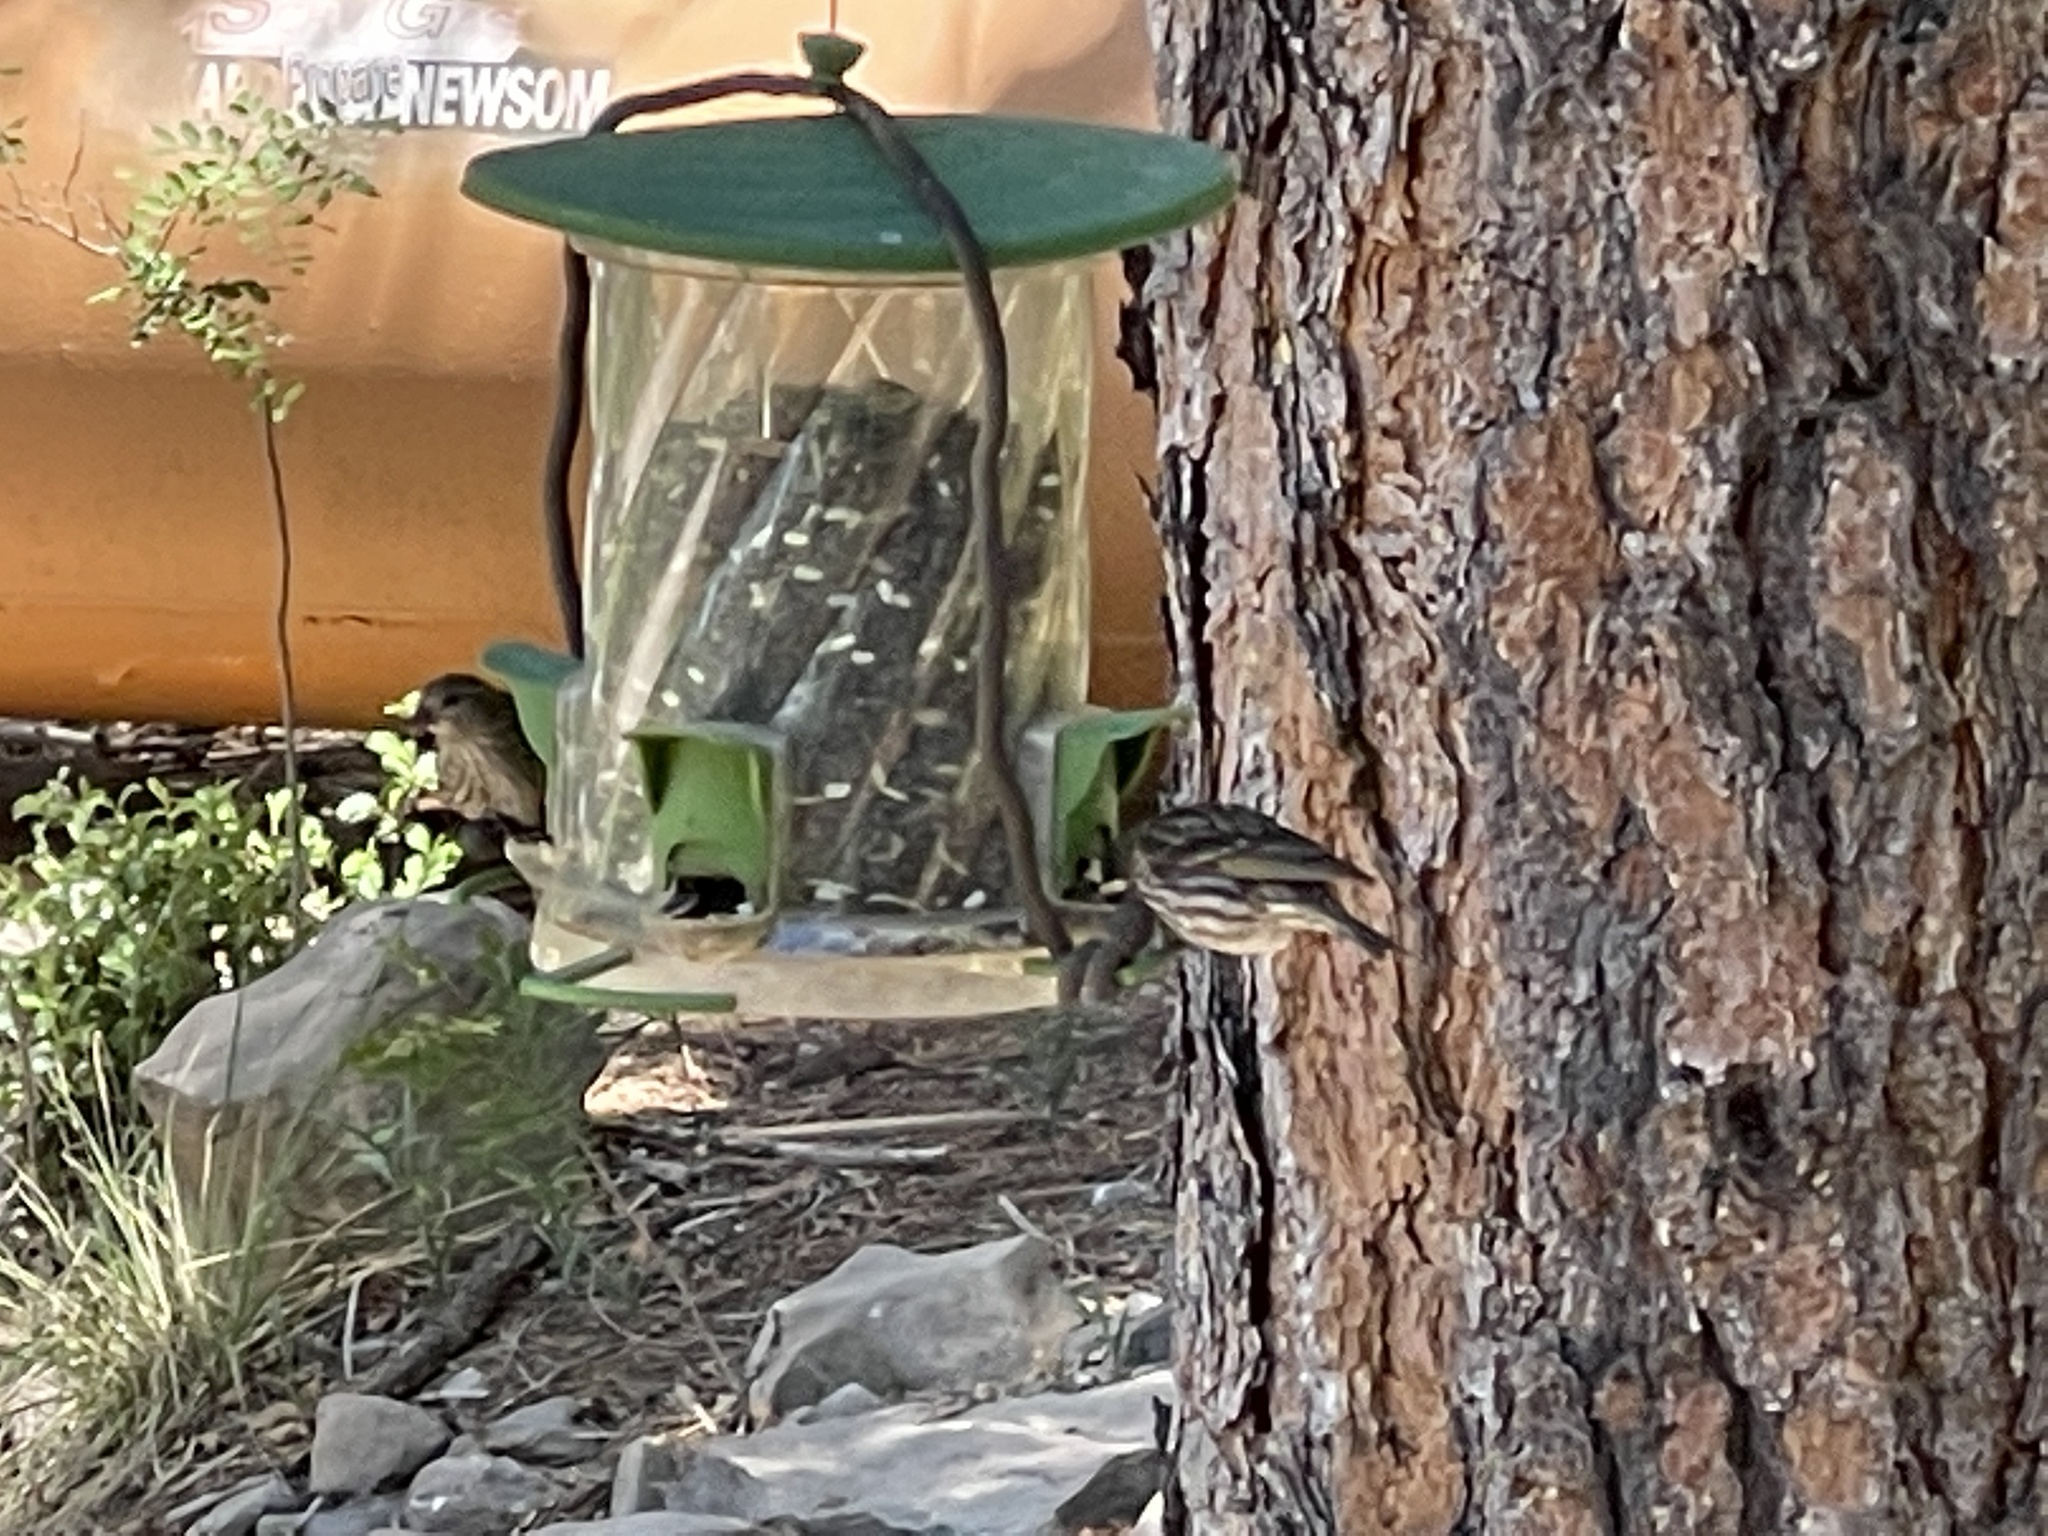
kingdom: Animalia
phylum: Chordata
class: Aves
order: Passeriformes
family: Fringillidae
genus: Spinus
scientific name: Spinus pinus
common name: Pine siskin
